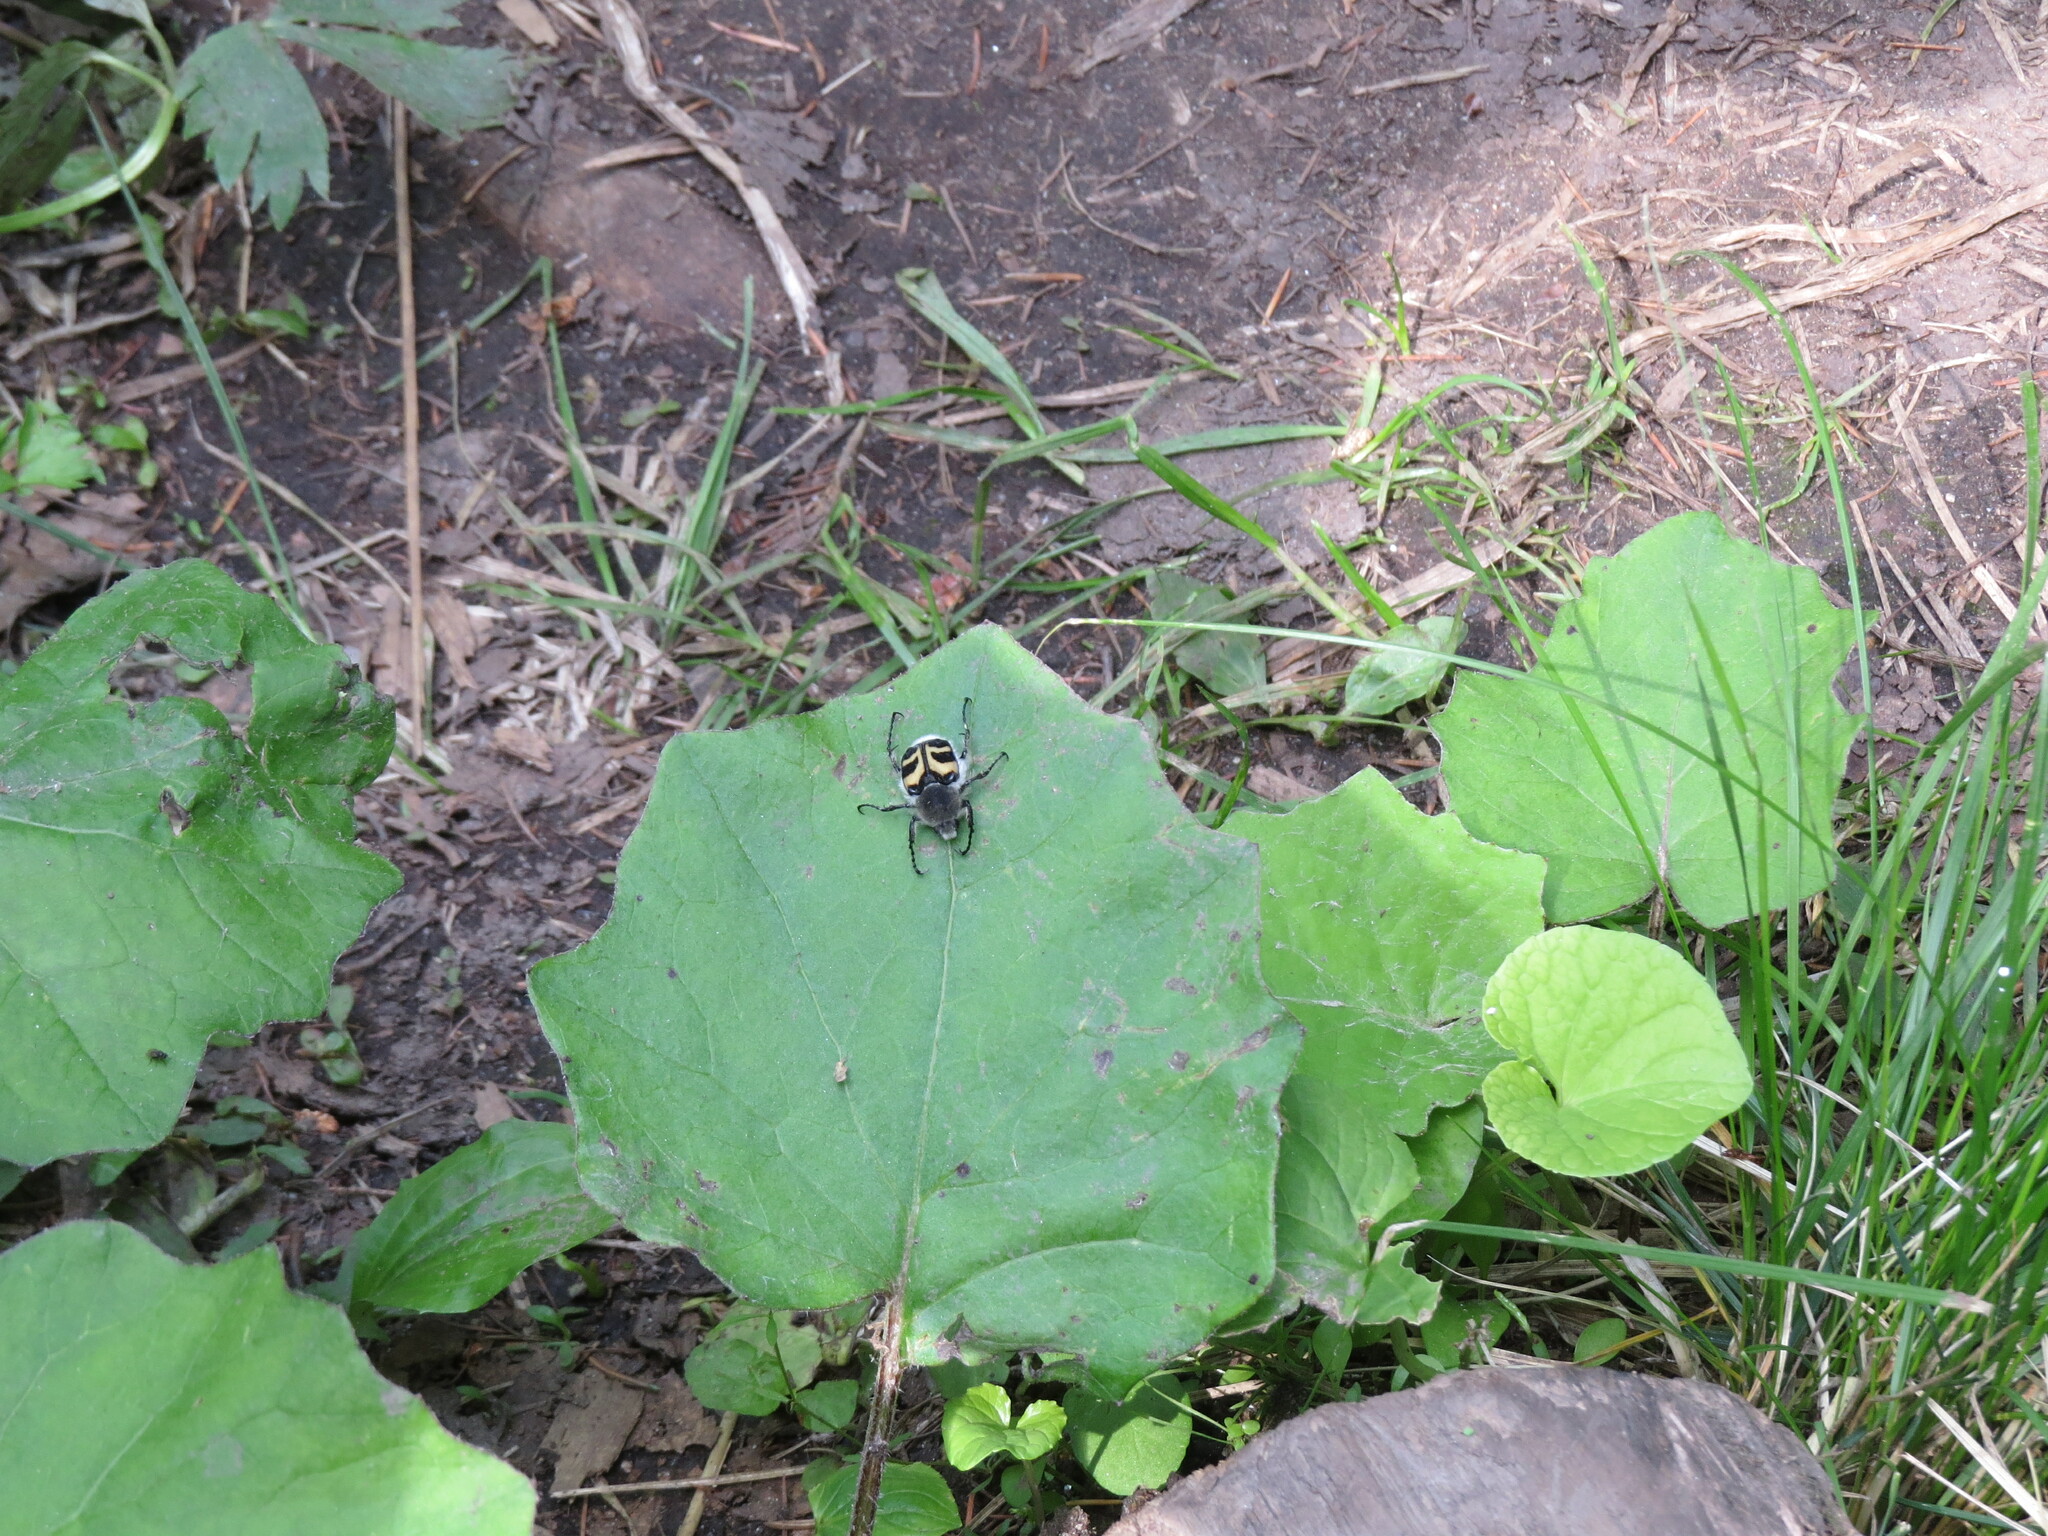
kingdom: Animalia
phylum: Arthropoda
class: Insecta
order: Coleoptera
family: Scarabaeidae
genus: Trichius
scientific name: Trichius fasciatus
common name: Bee beetle
